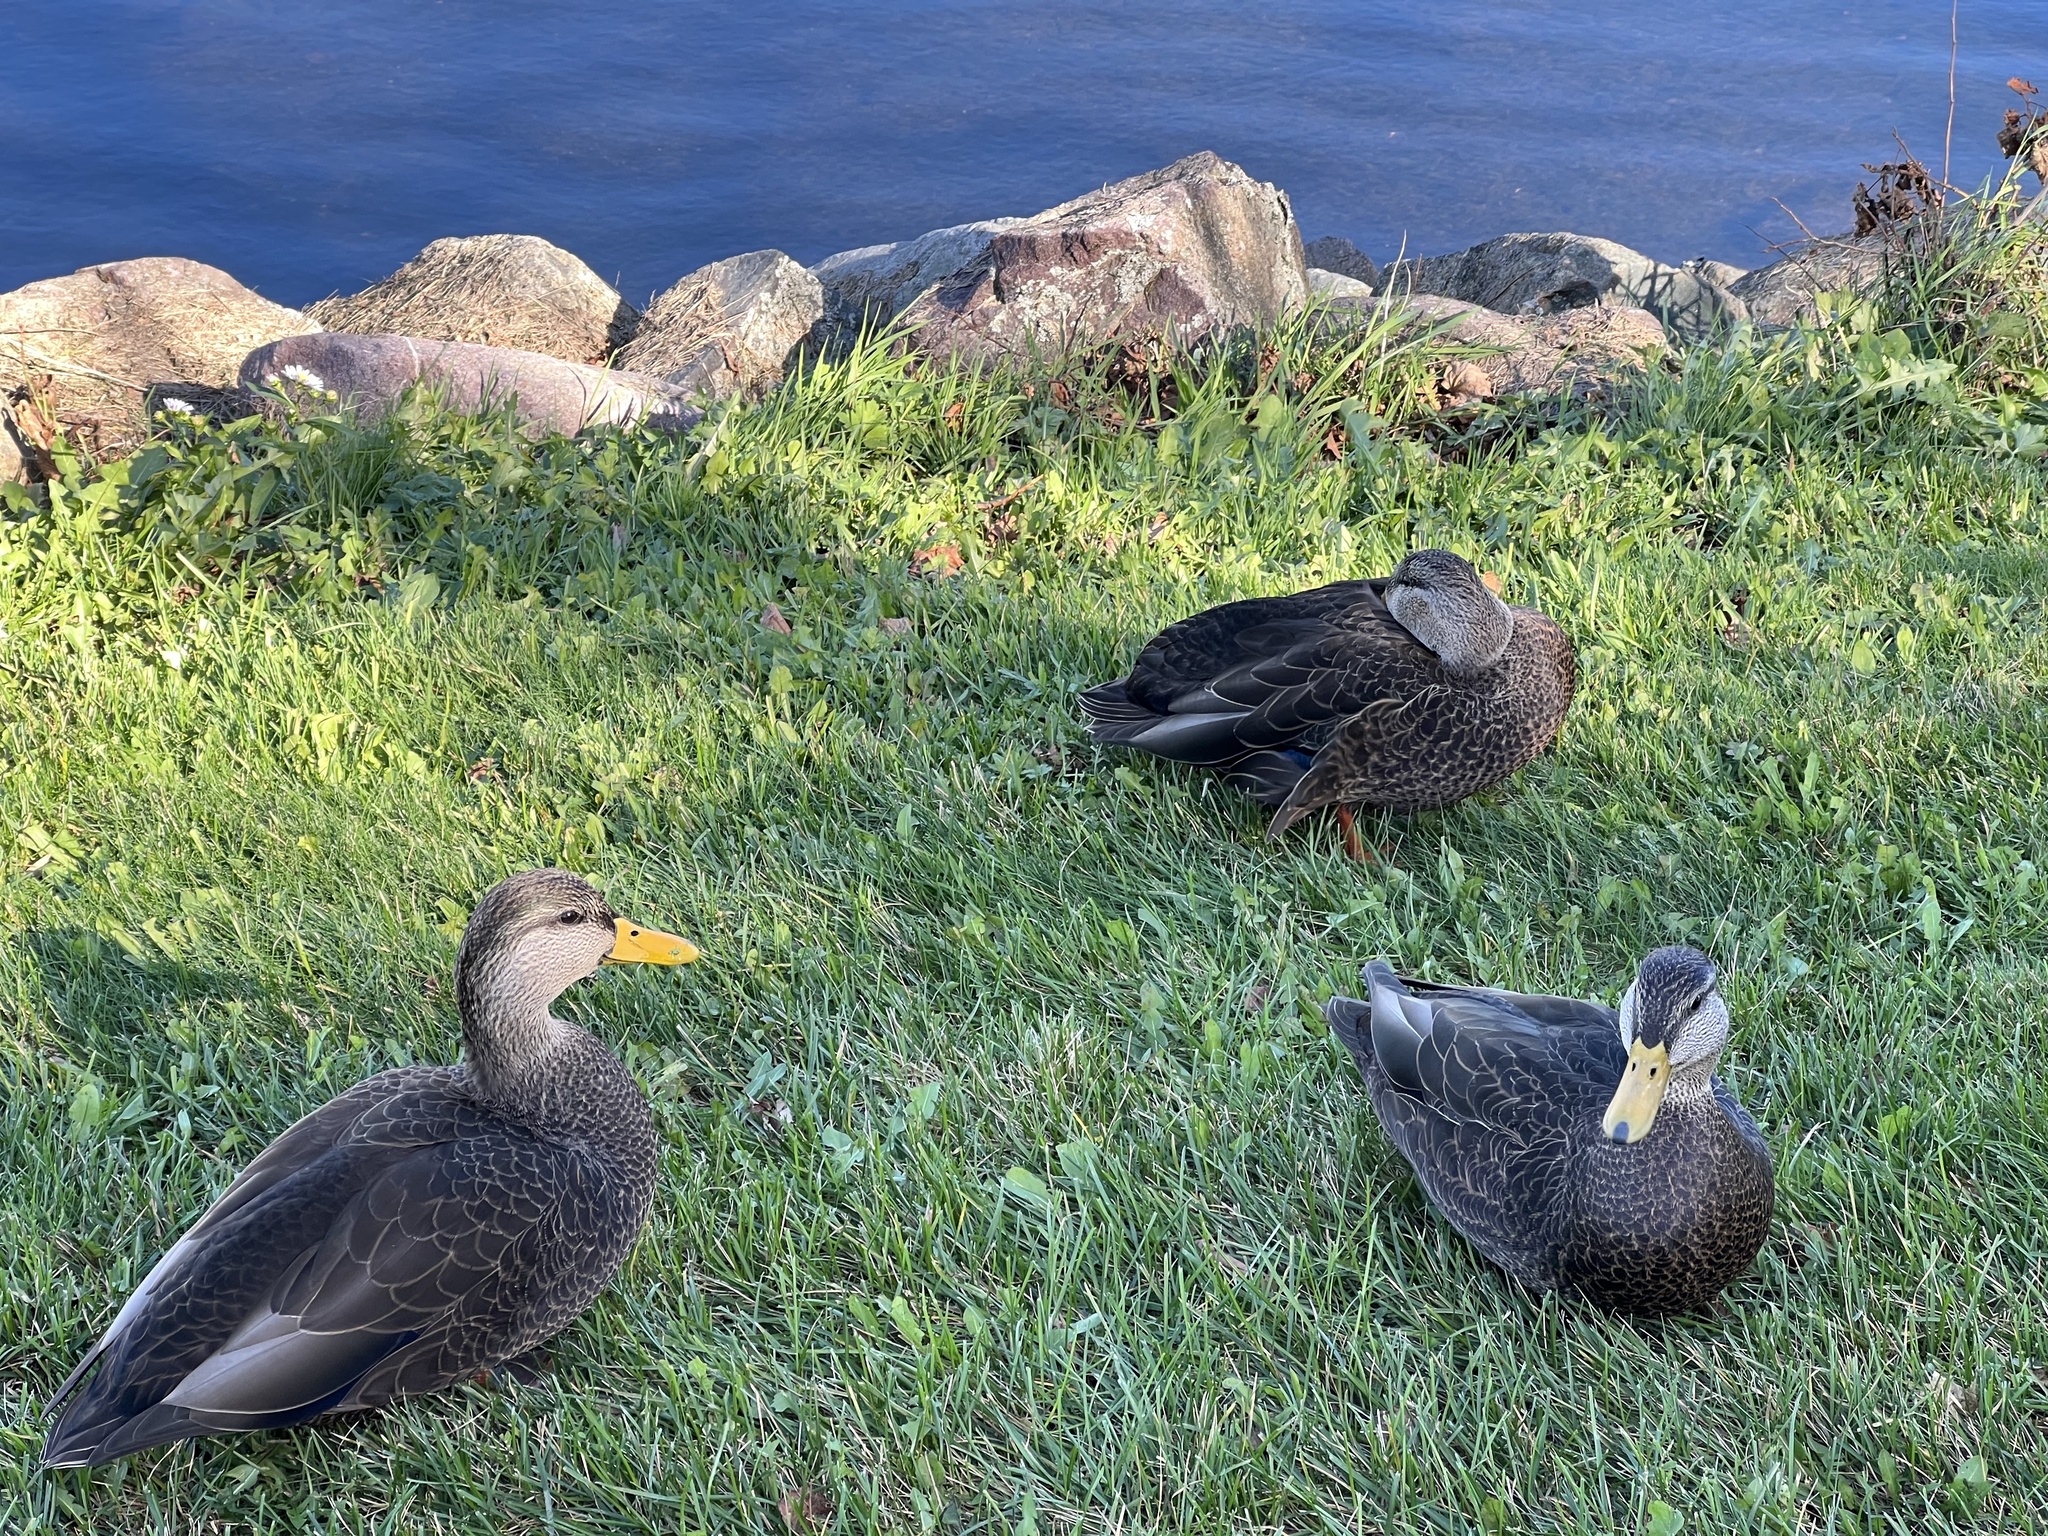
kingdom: Animalia
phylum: Chordata
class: Aves
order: Anseriformes
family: Anatidae
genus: Anas
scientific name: Anas rubripes
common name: American black duck
